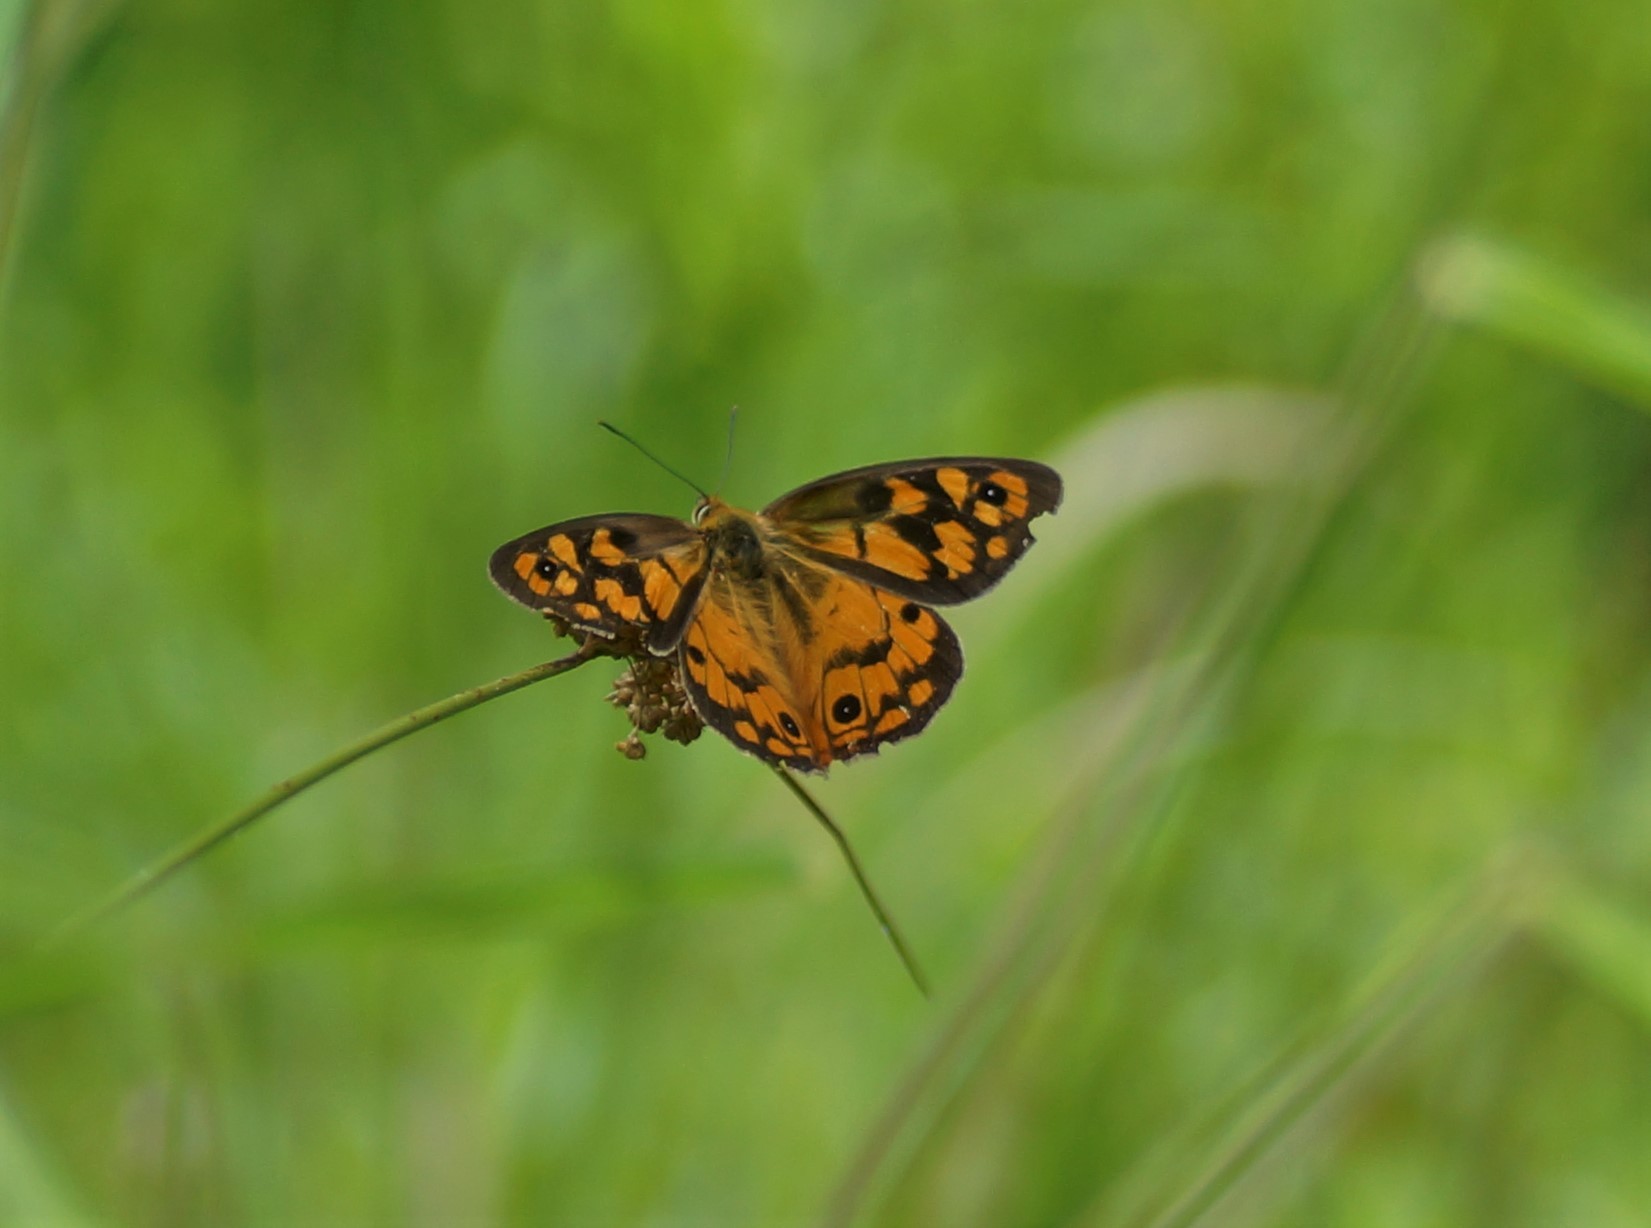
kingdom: Animalia
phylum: Arthropoda
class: Insecta
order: Lepidoptera
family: Nymphalidae
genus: Heteronympha
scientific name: Heteronympha penelope
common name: Shouldered brown
